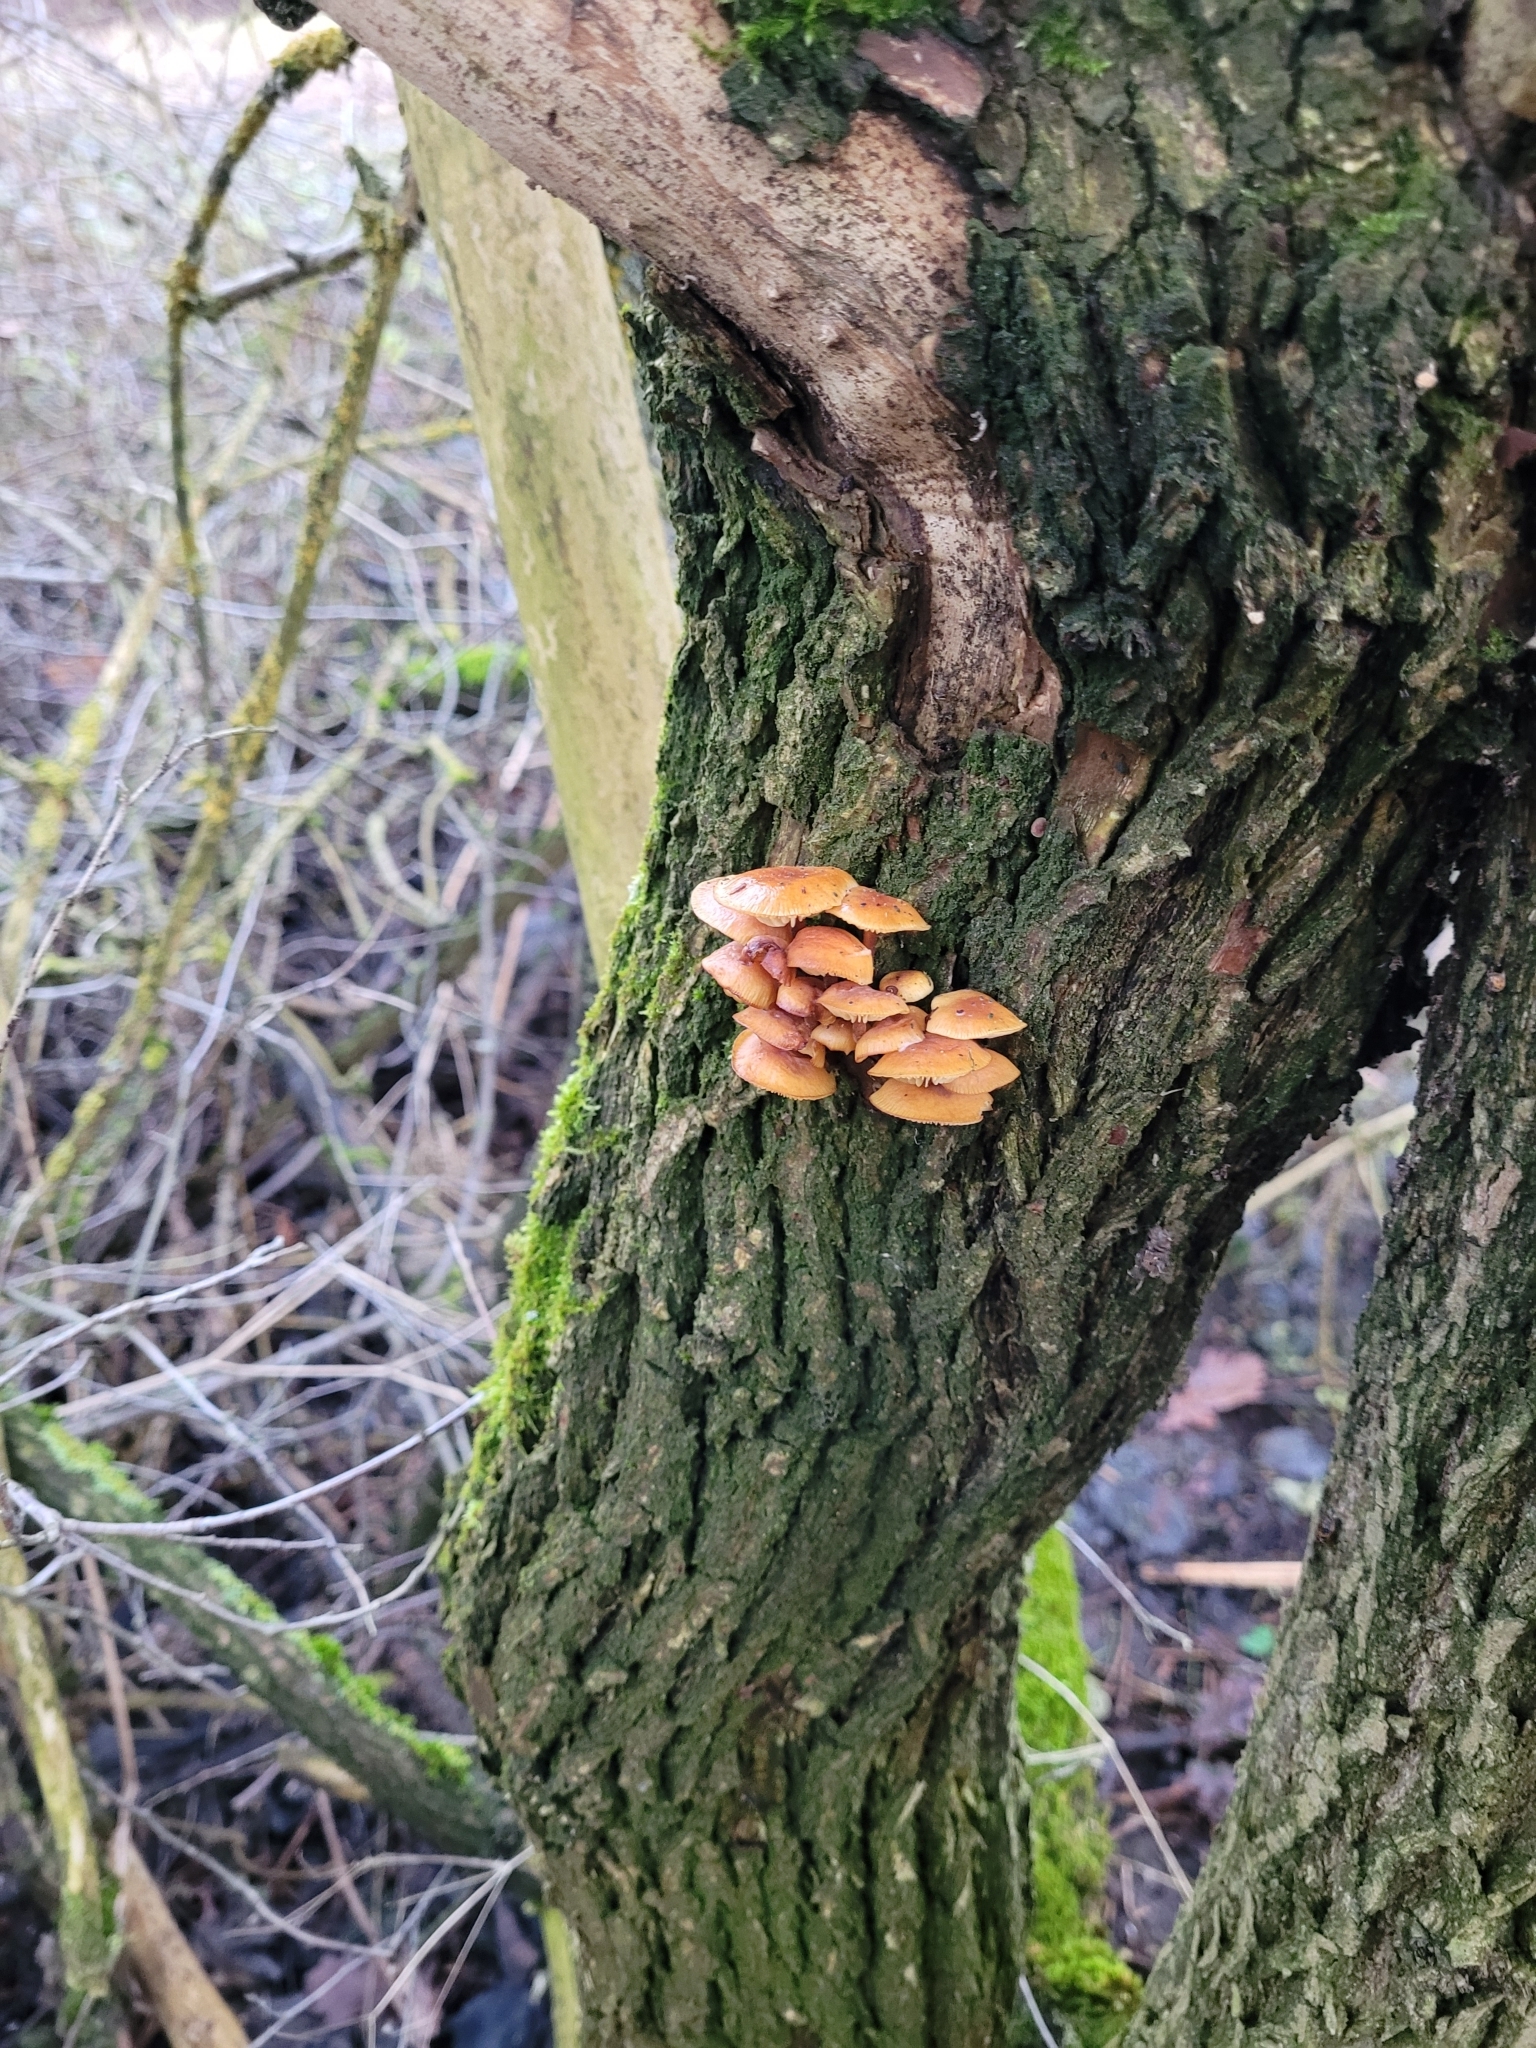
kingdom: Fungi
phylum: Basidiomycota
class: Agaricomycetes
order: Agaricales
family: Physalacriaceae
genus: Flammulina
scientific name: Flammulina
